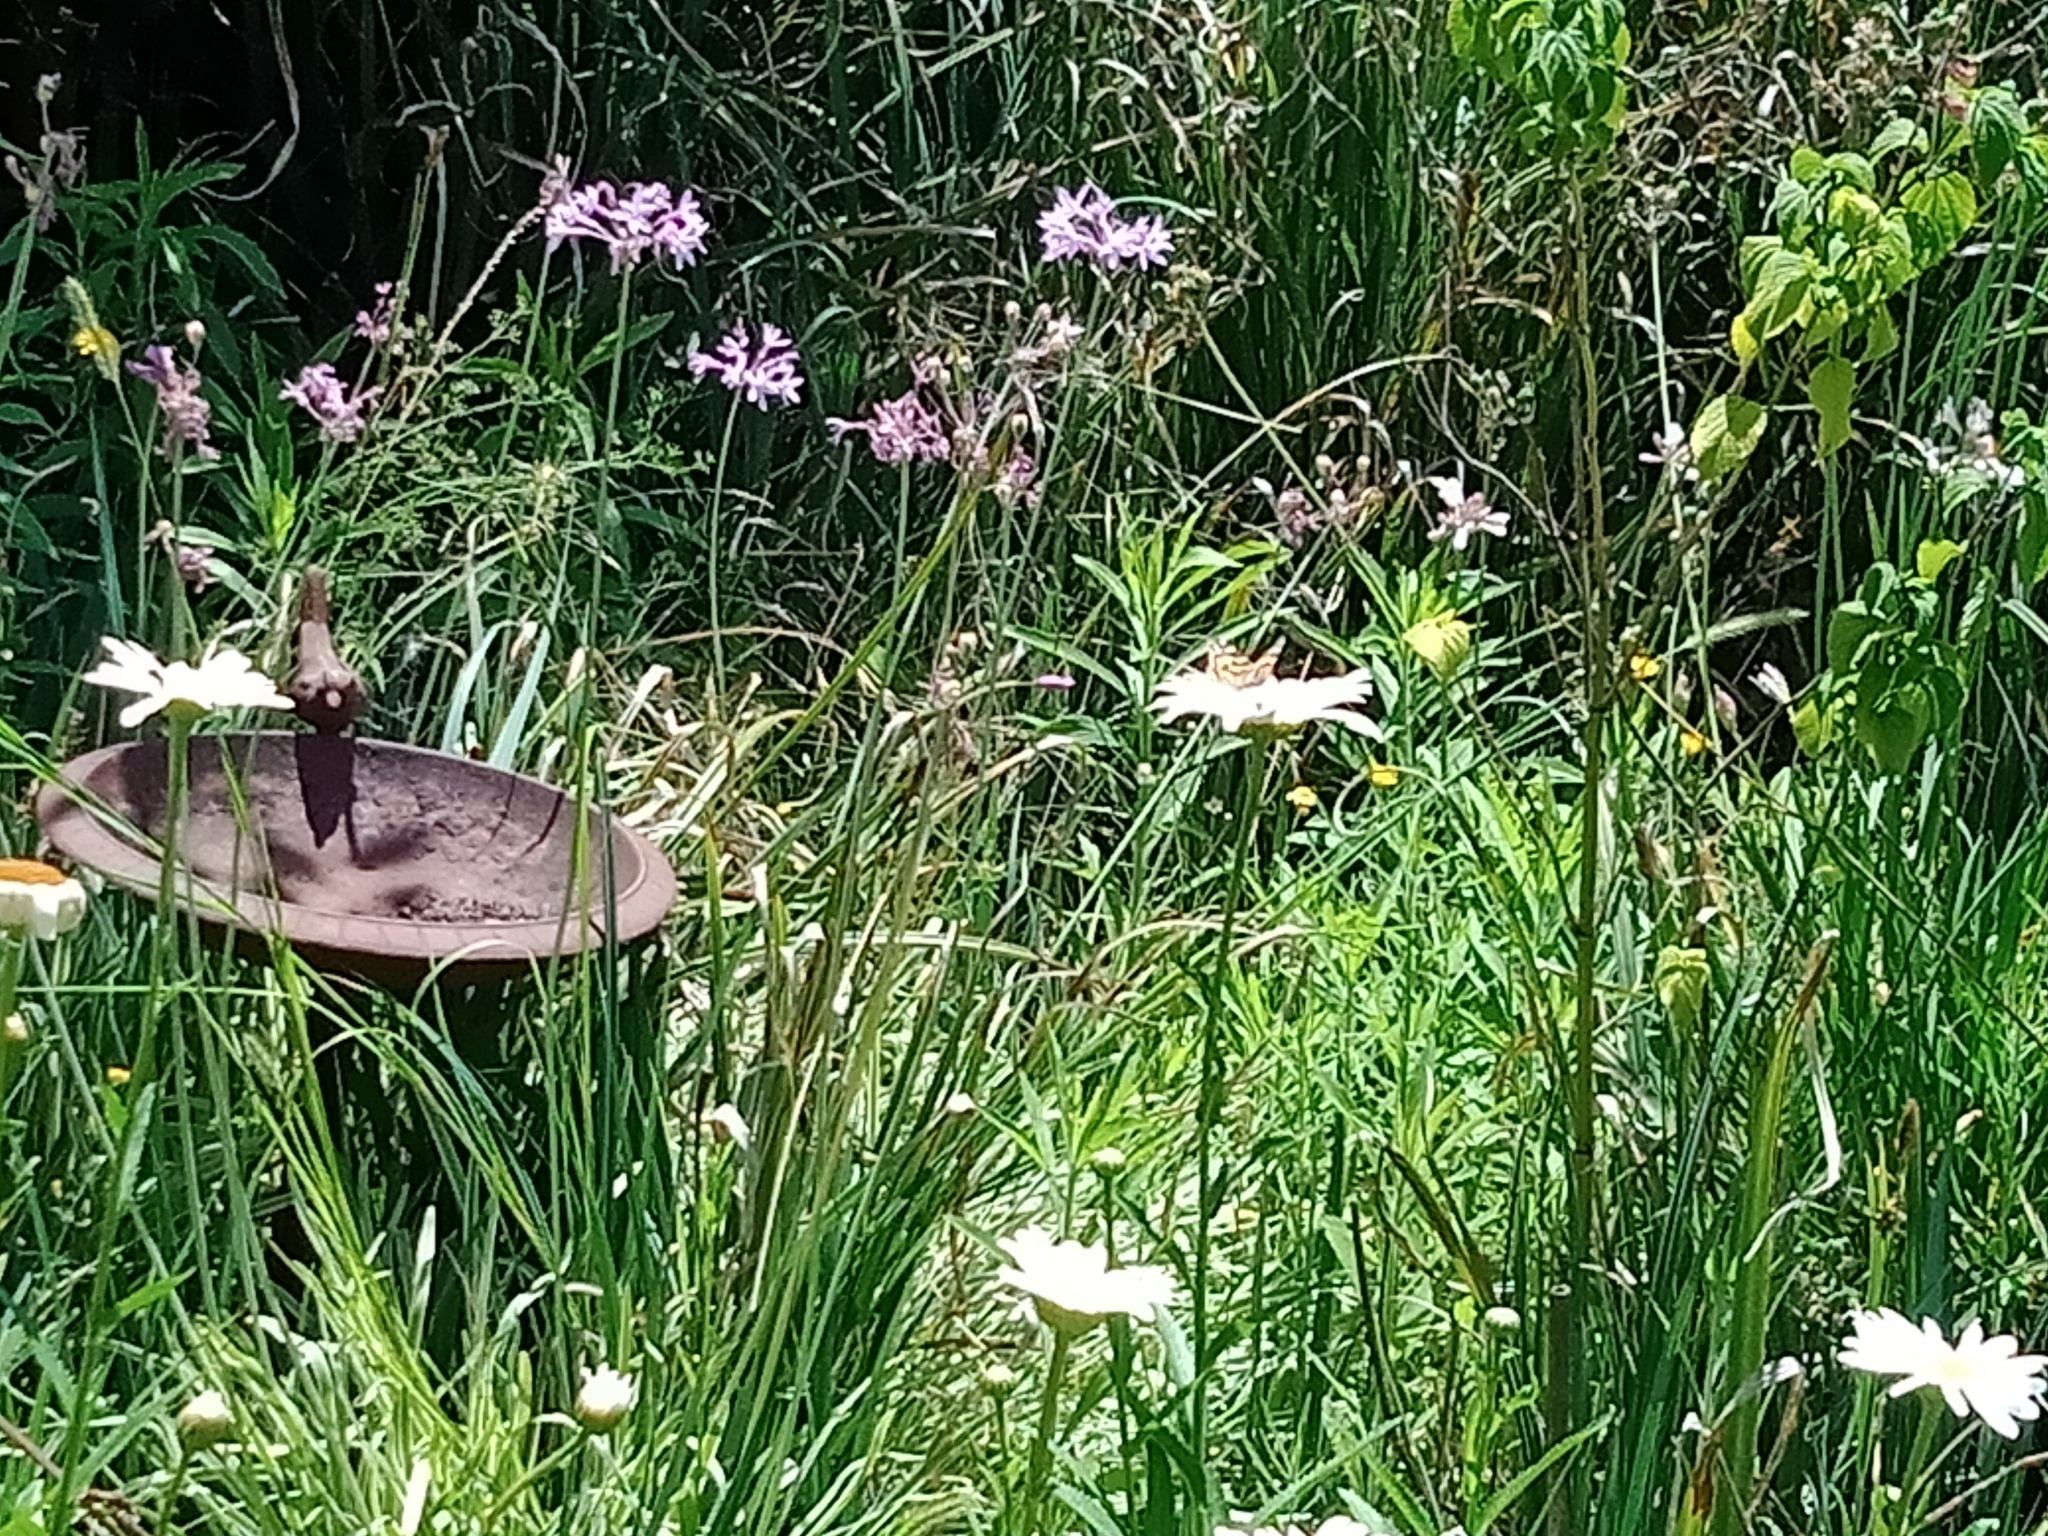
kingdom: Animalia
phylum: Arthropoda
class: Insecta
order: Lepidoptera
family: Nymphalidae
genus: Vanessa
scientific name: Vanessa kershawi
